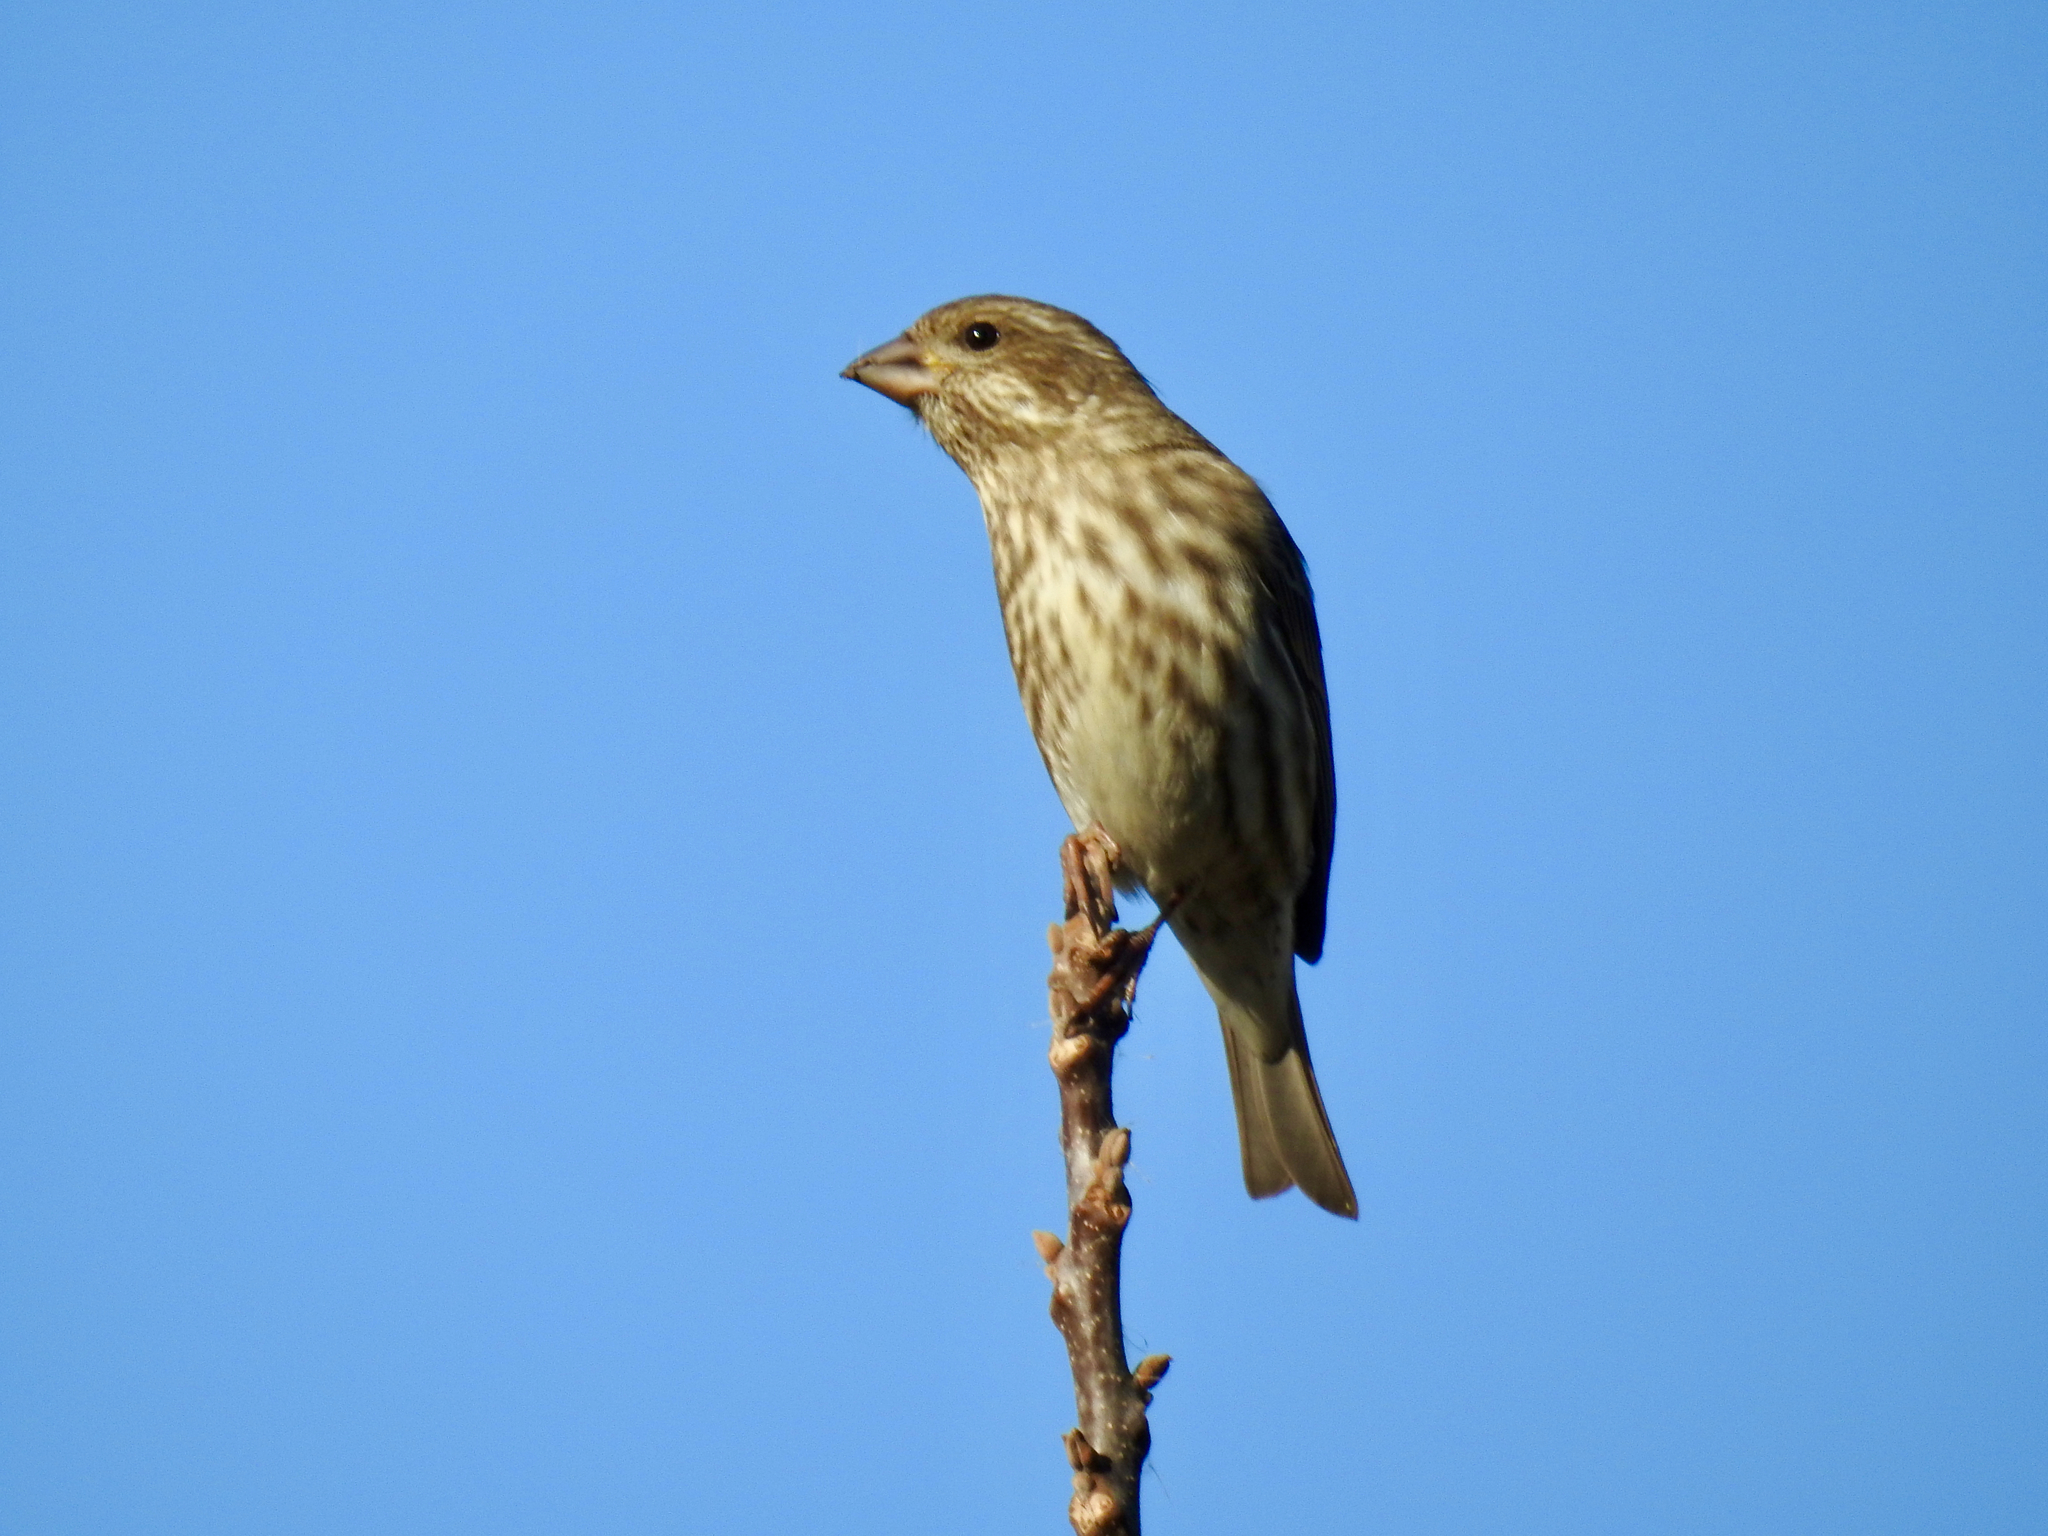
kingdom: Animalia
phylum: Chordata
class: Aves
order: Passeriformes
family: Fringillidae
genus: Haemorhous
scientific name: Haemorhous purpureus
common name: Purple finch
